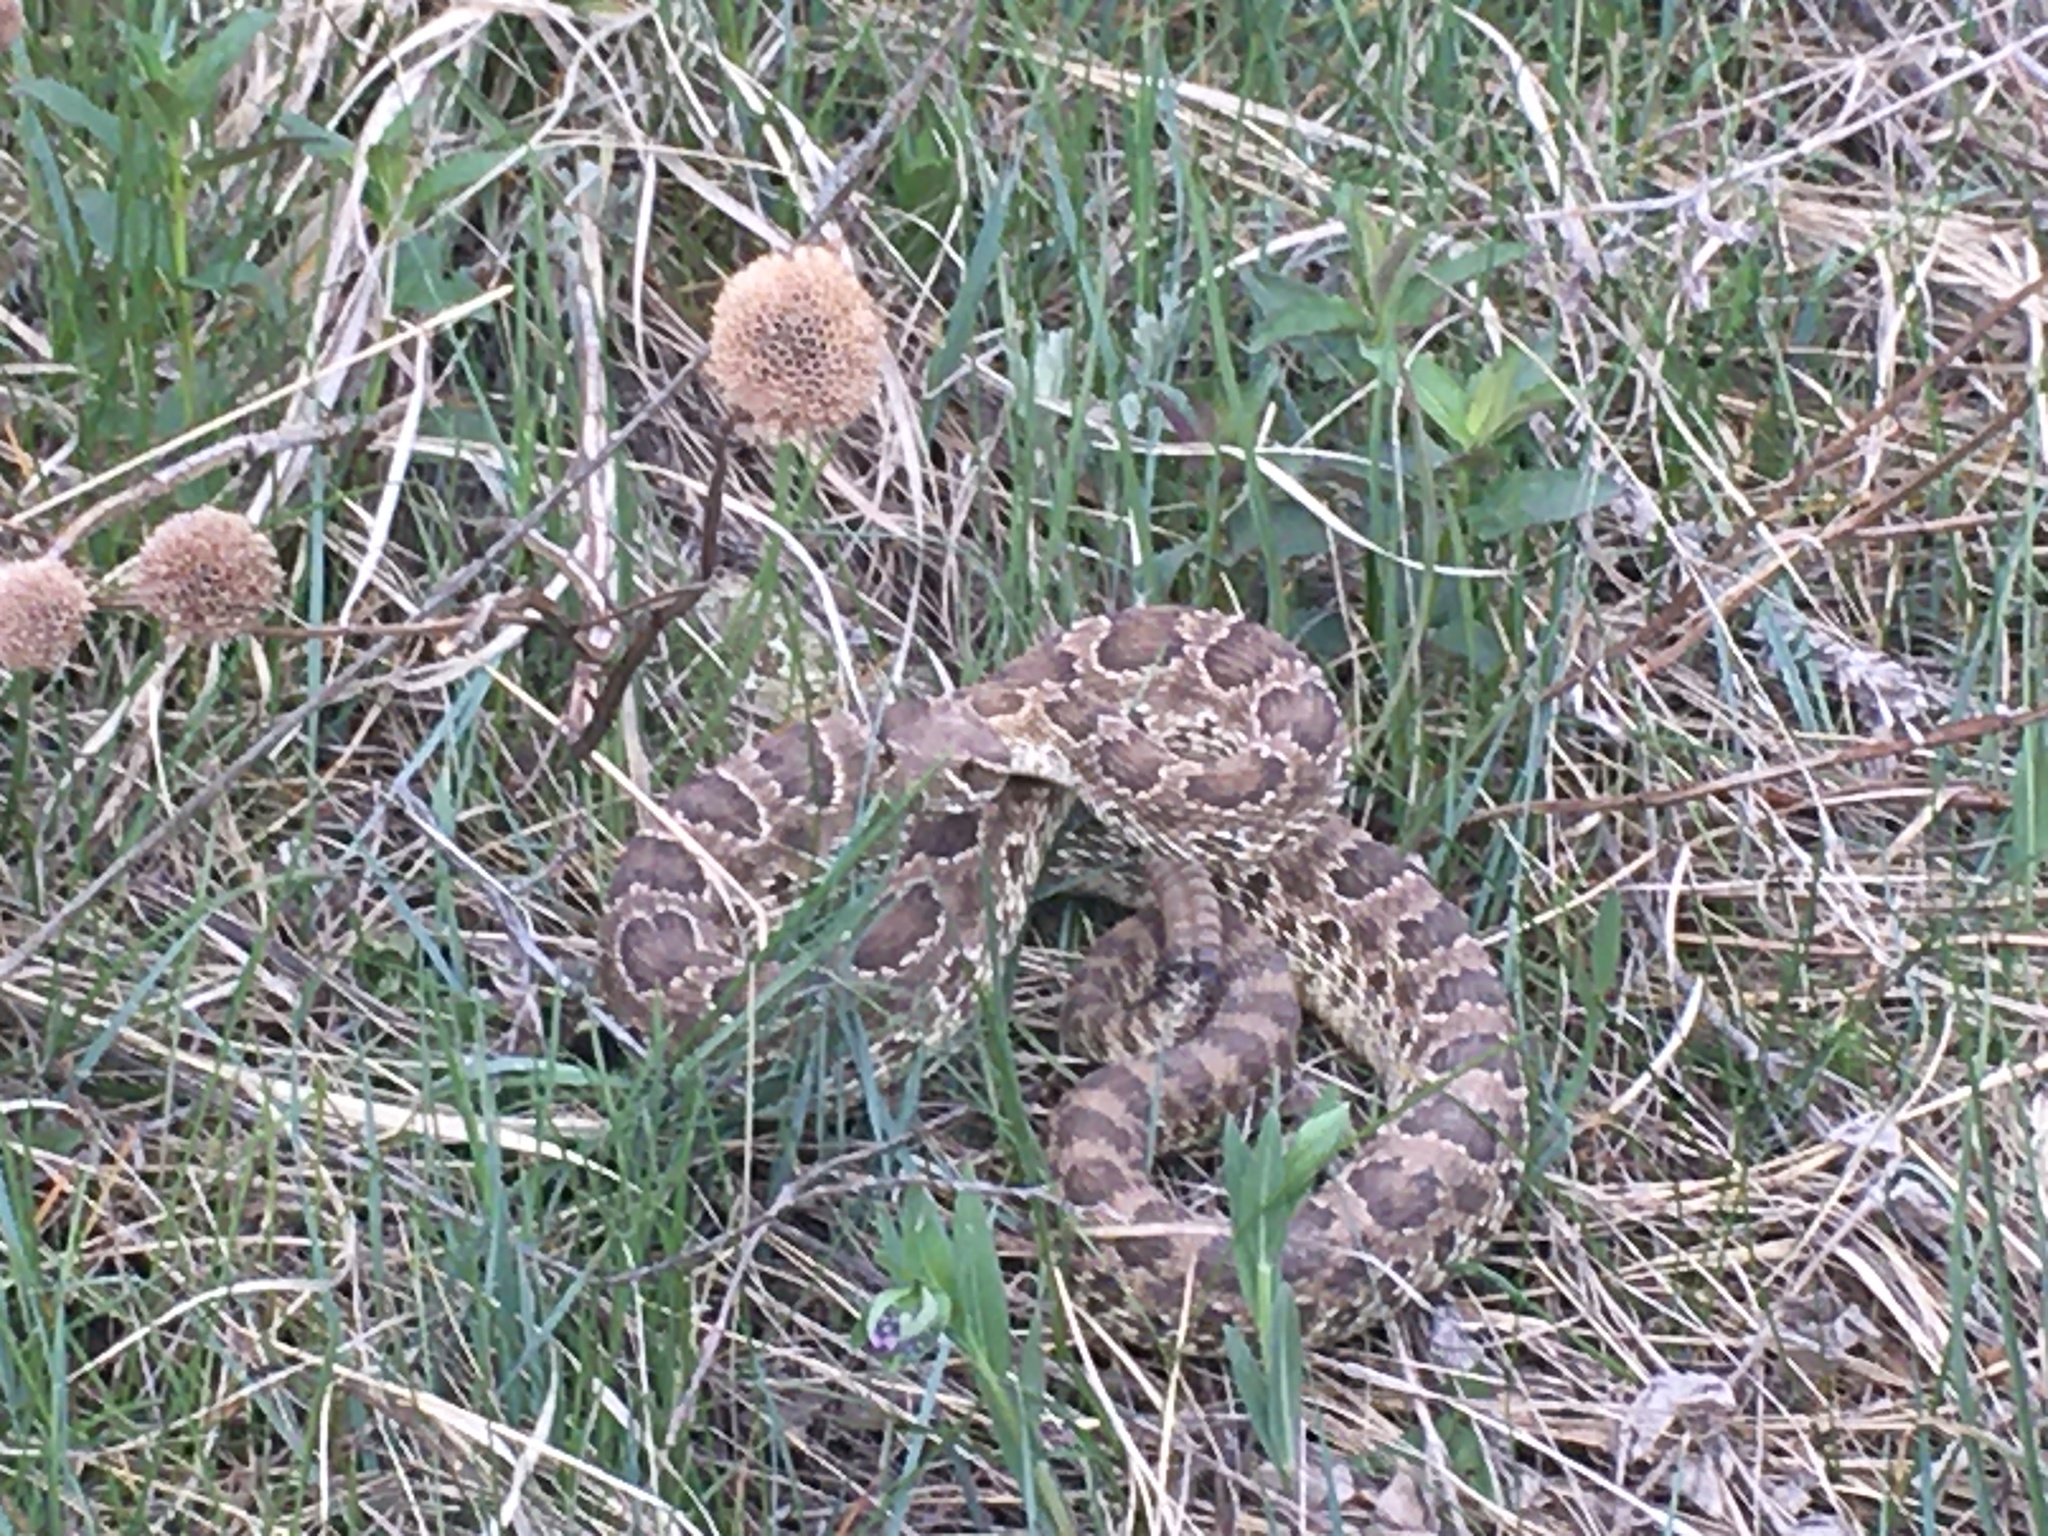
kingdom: Animalia
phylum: Chordata
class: Squamata
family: Viperidae
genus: Crotalus
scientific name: Crotalus viridis
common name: Prairie rattlesnake
